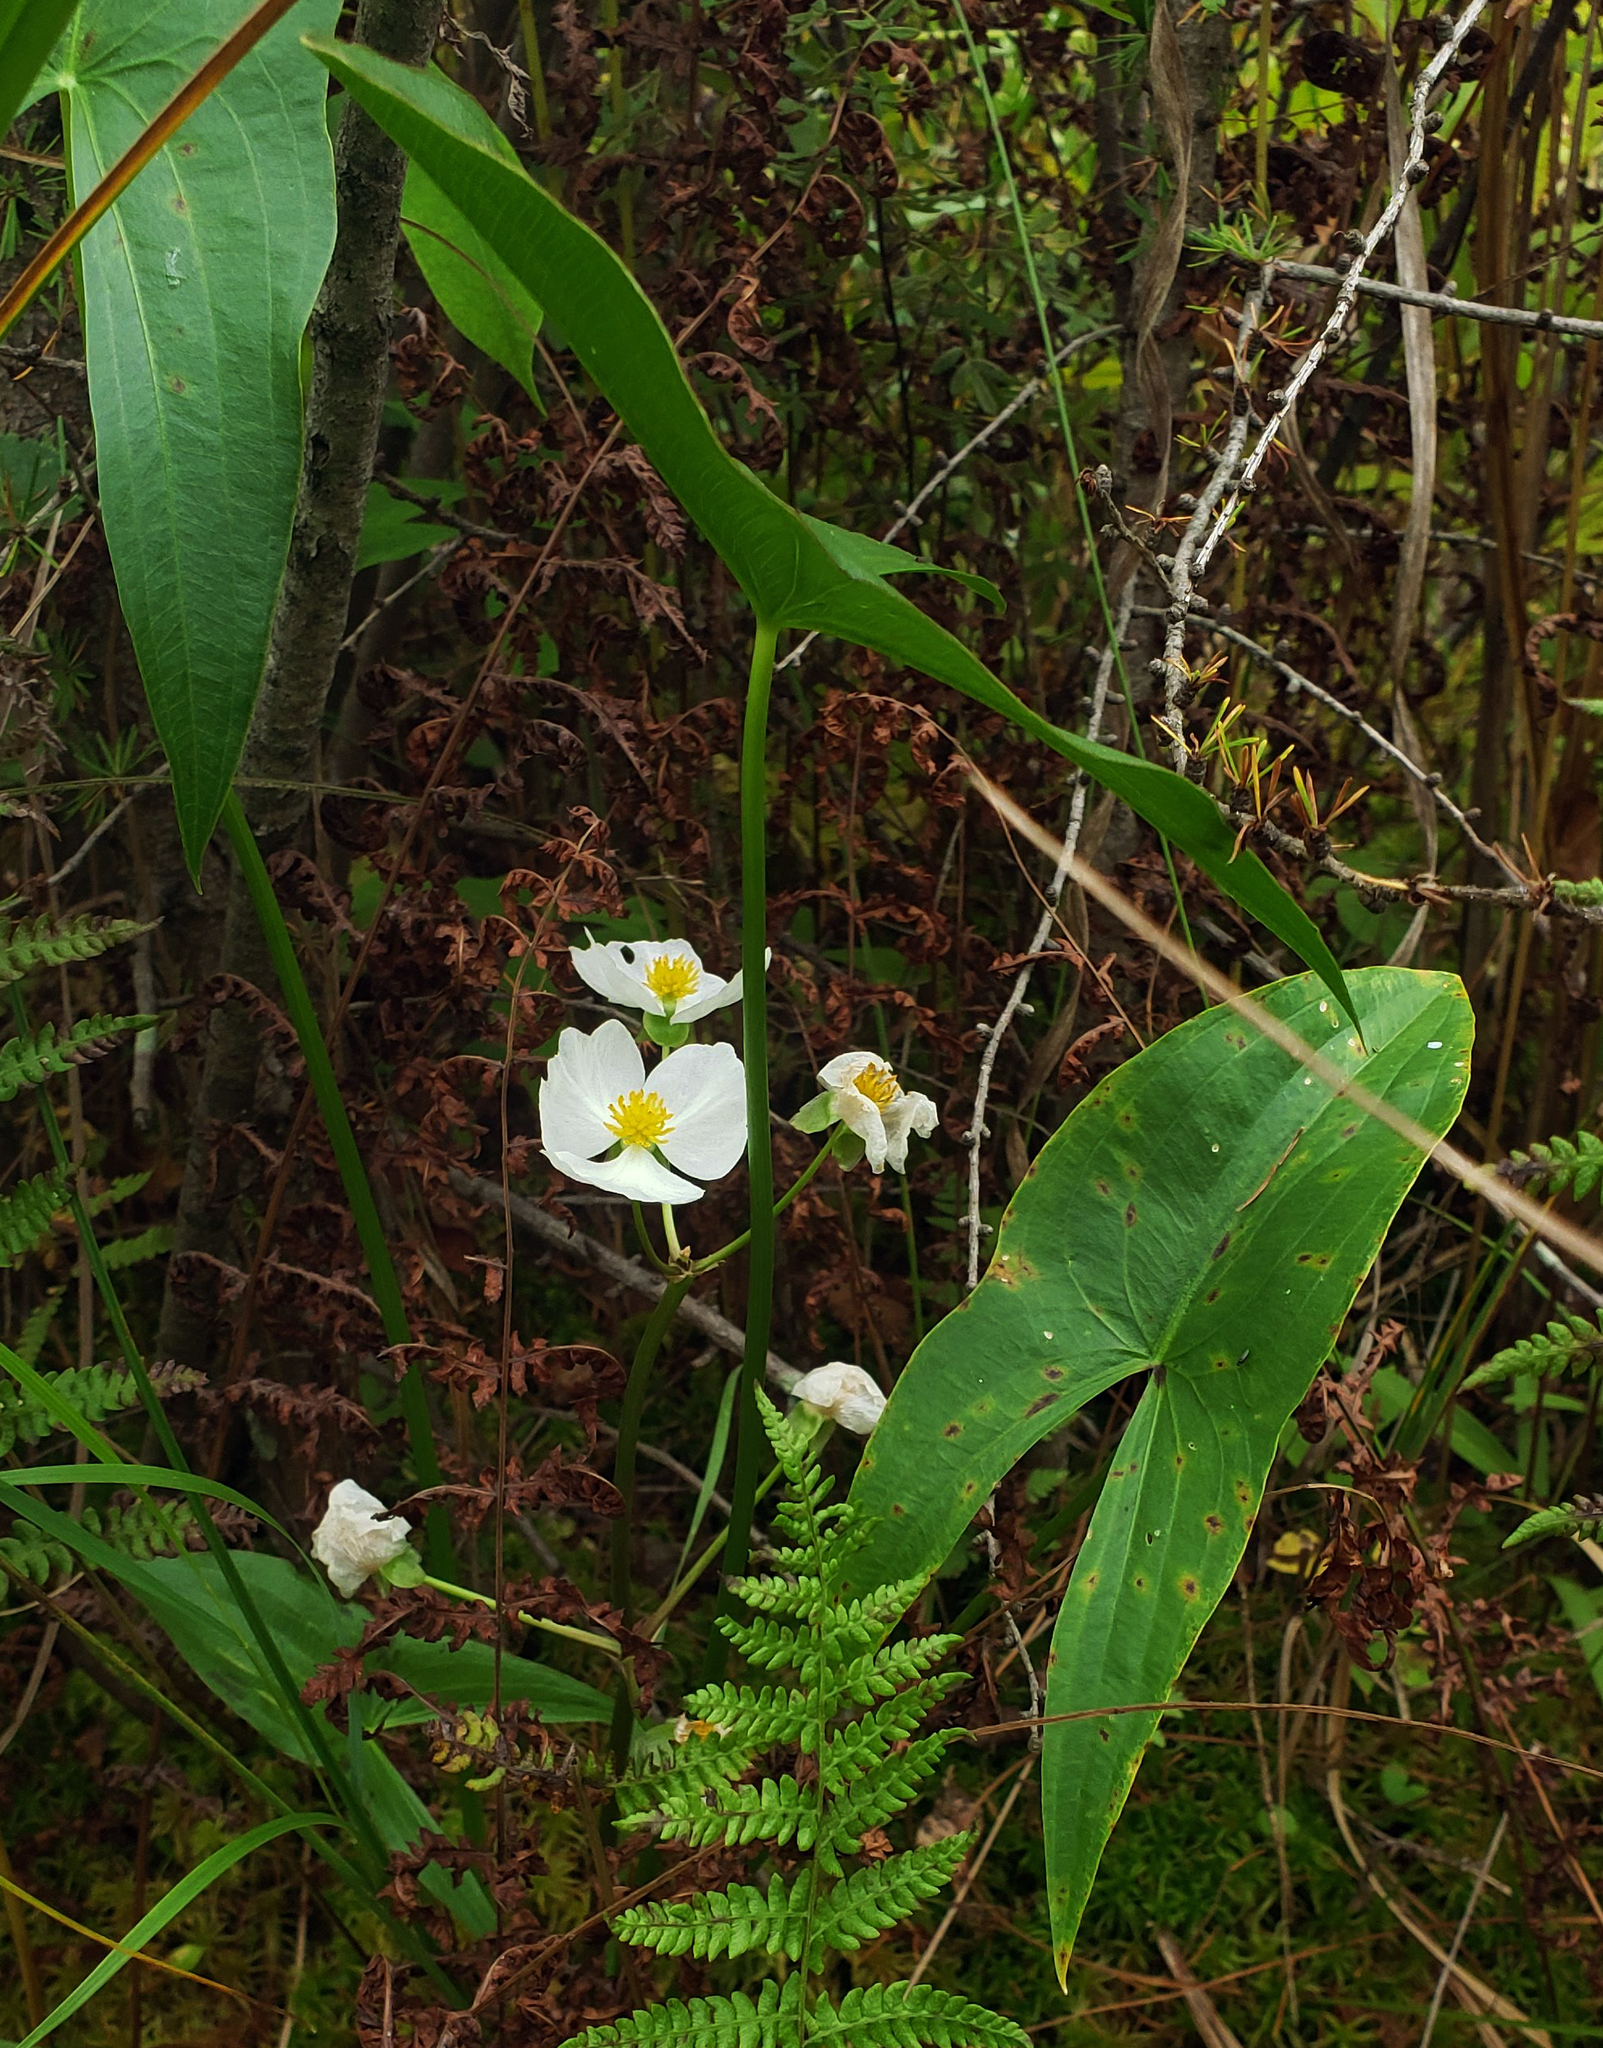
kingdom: Plantae
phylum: Tracheophyta
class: Liliopsida
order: Alismatales
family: Alismataceae
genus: Sagittaria
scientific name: Sagittaria latifolia
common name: Duck-potato
